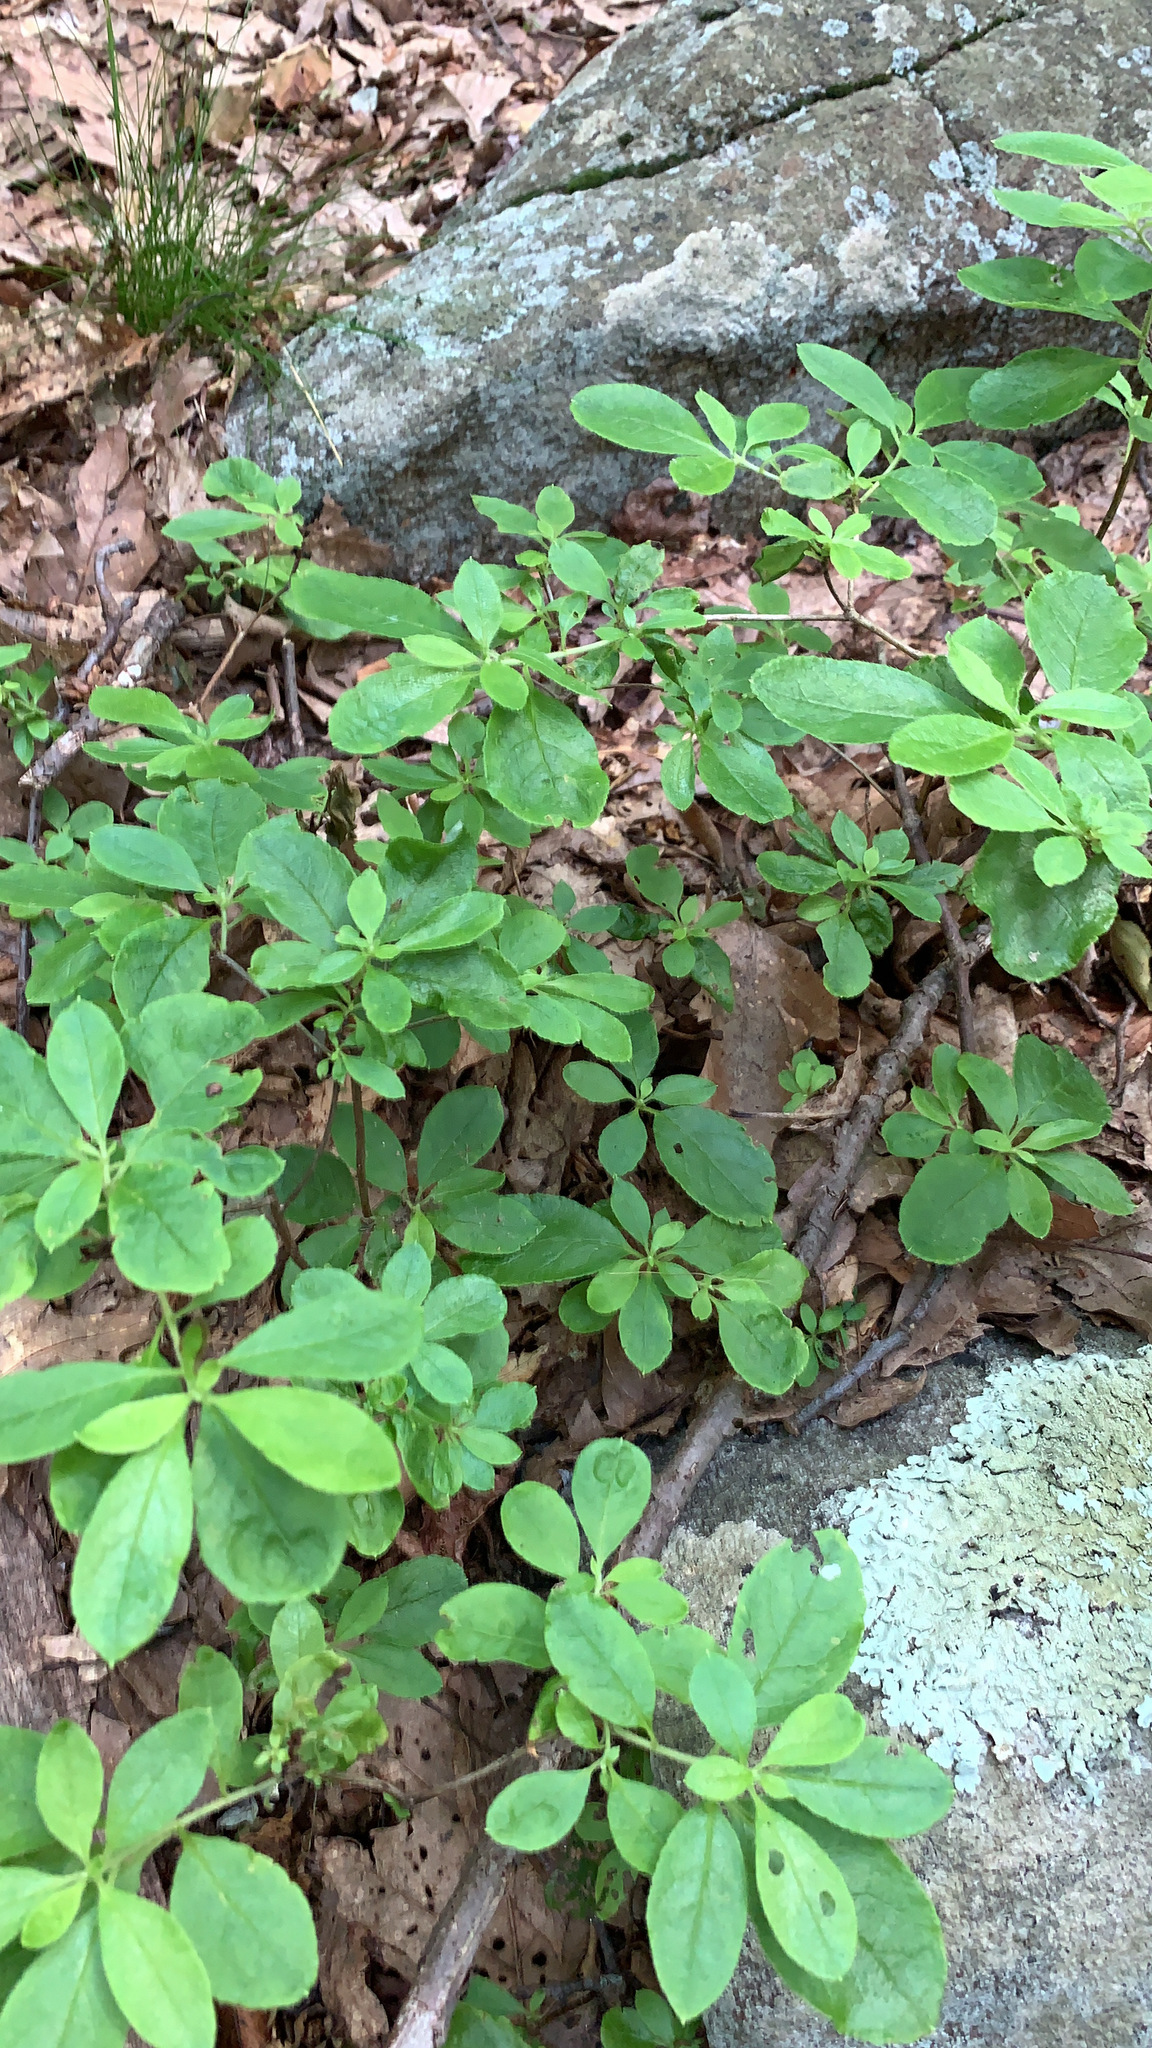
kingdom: Plantae
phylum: Tracheophyta
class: Magnoliopsida
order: Ericales
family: Ericaceae
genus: Rhododendron
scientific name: Rhododendron pilosum
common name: Hairy minniebush
